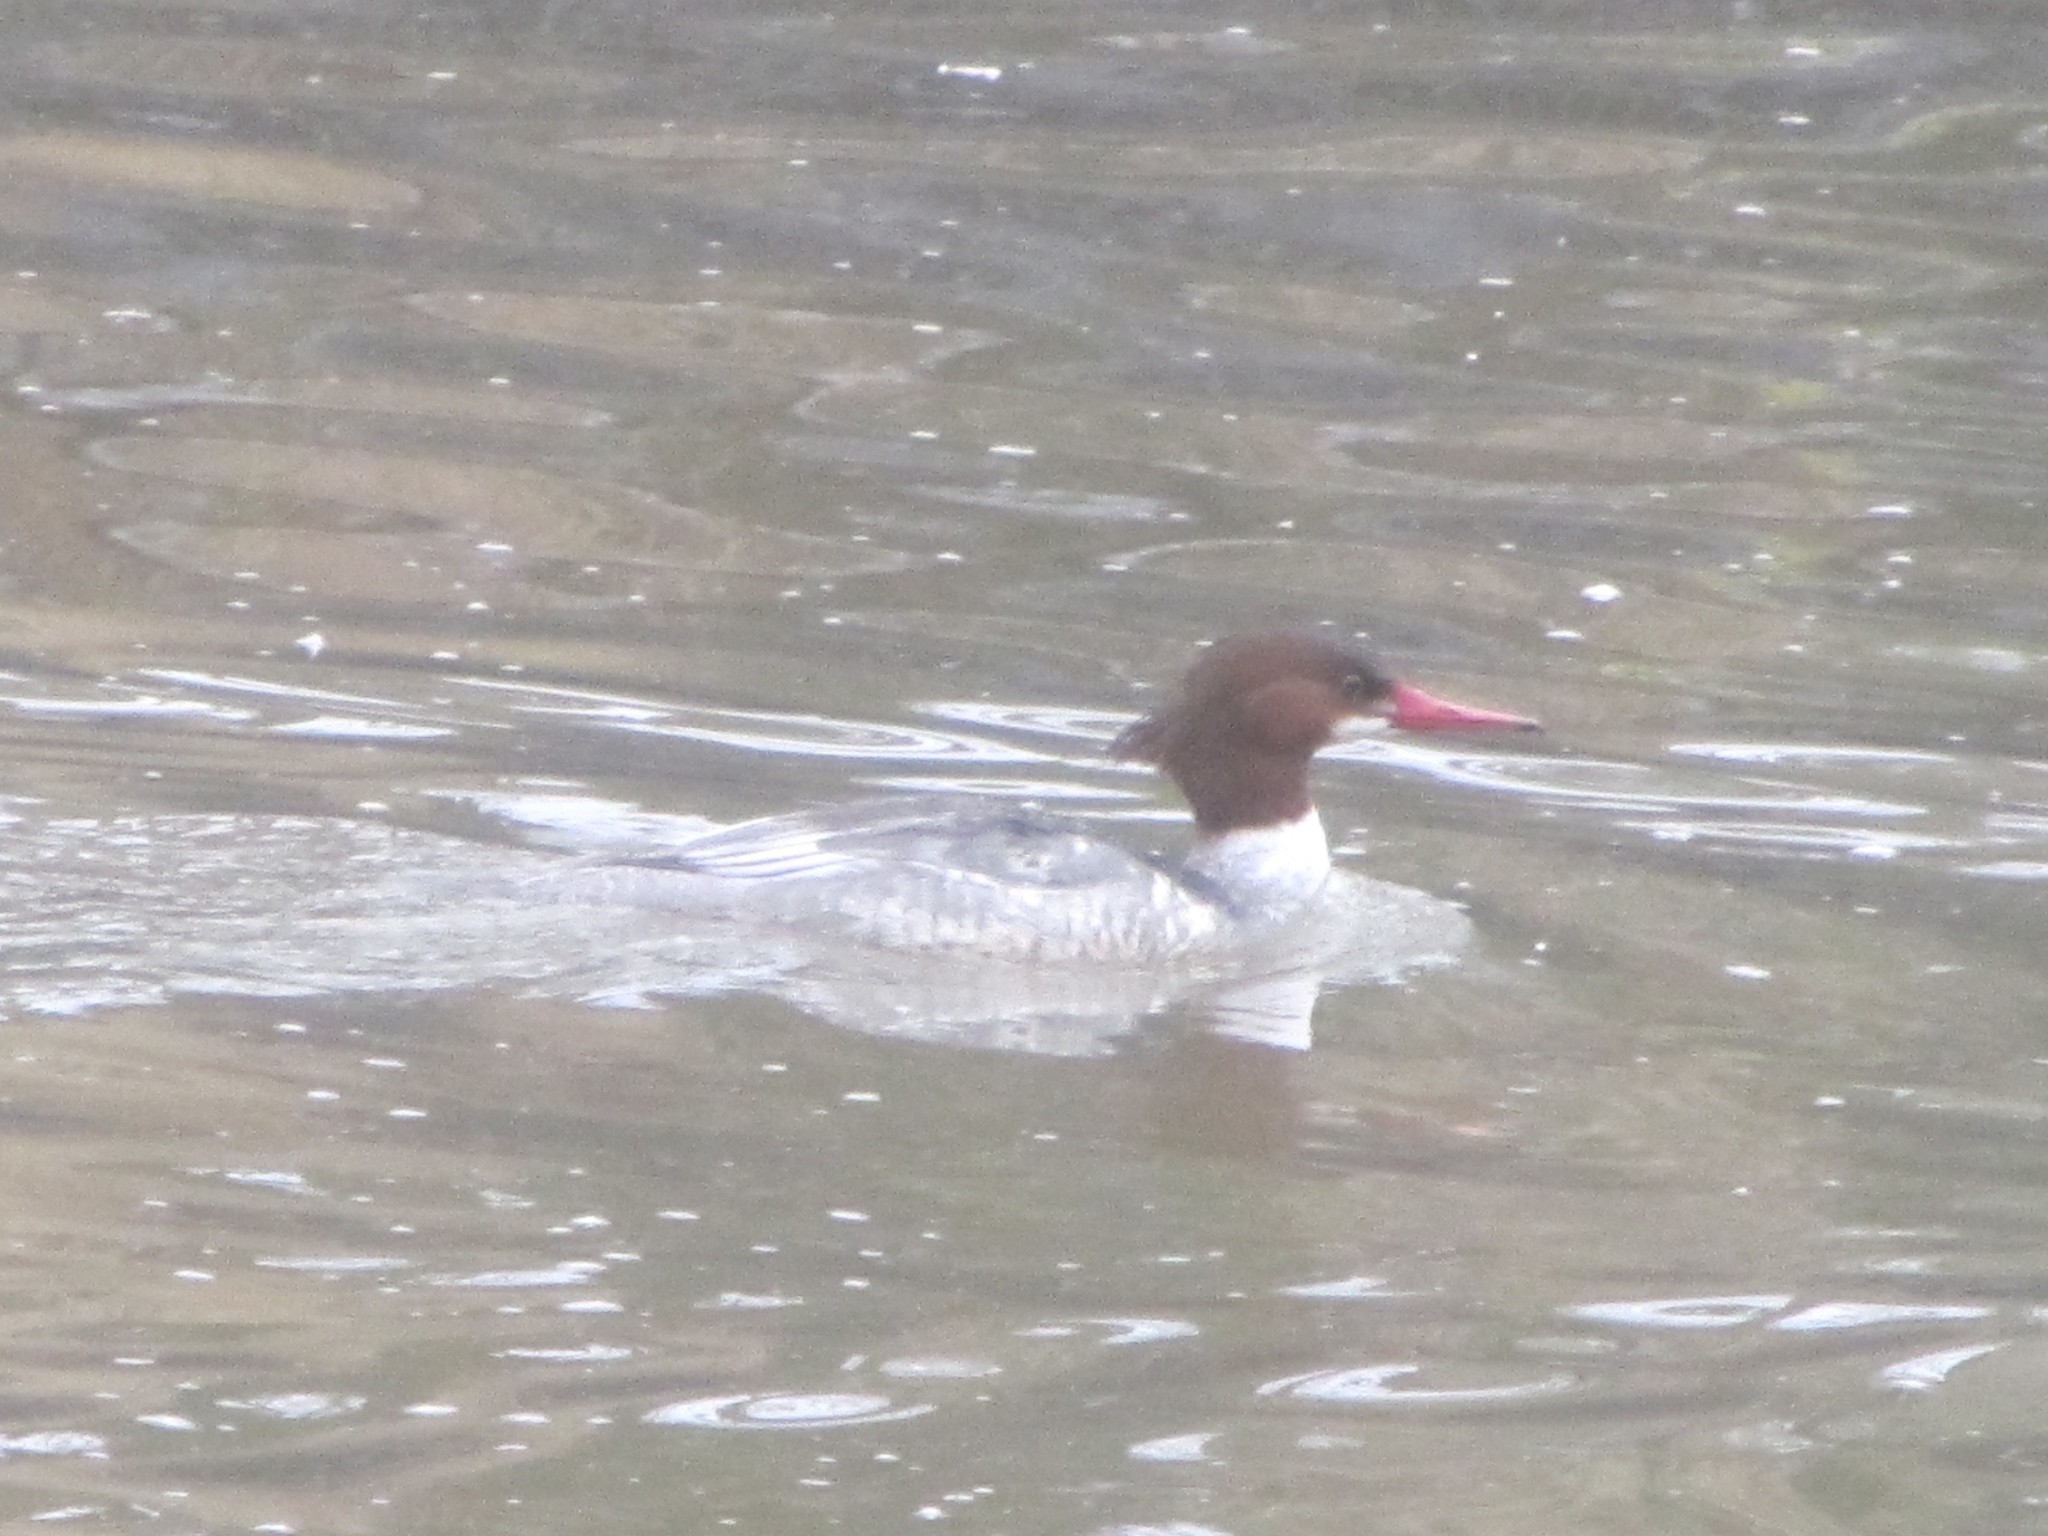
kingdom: Animalia
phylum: Chordata
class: Aves
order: Anseriformes
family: Anatidae
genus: Mergus
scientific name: Mergus merganser
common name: Common merganser
